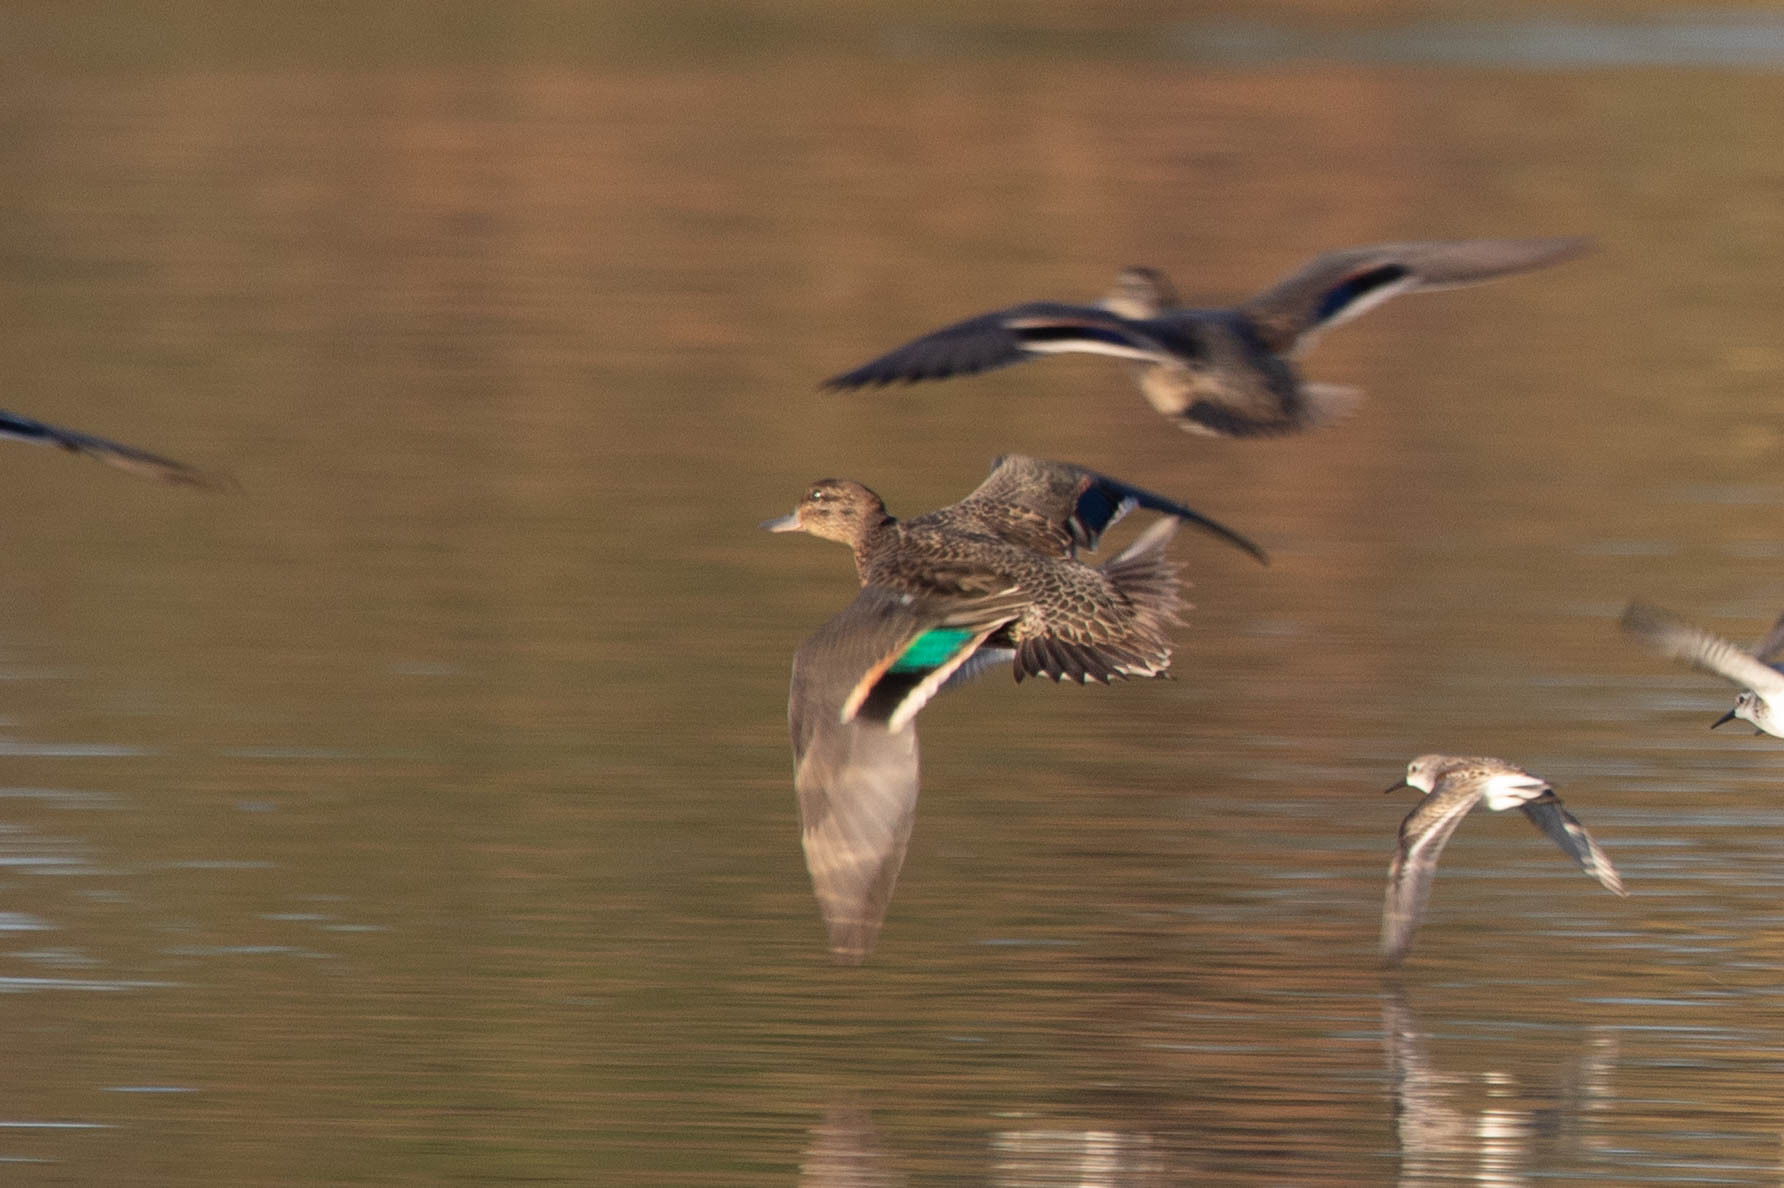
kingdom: Animalia
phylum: Chordata
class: Aves
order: Anseriformes
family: Anatidae
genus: Anas
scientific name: Anas crecca
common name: Eurasian teal
